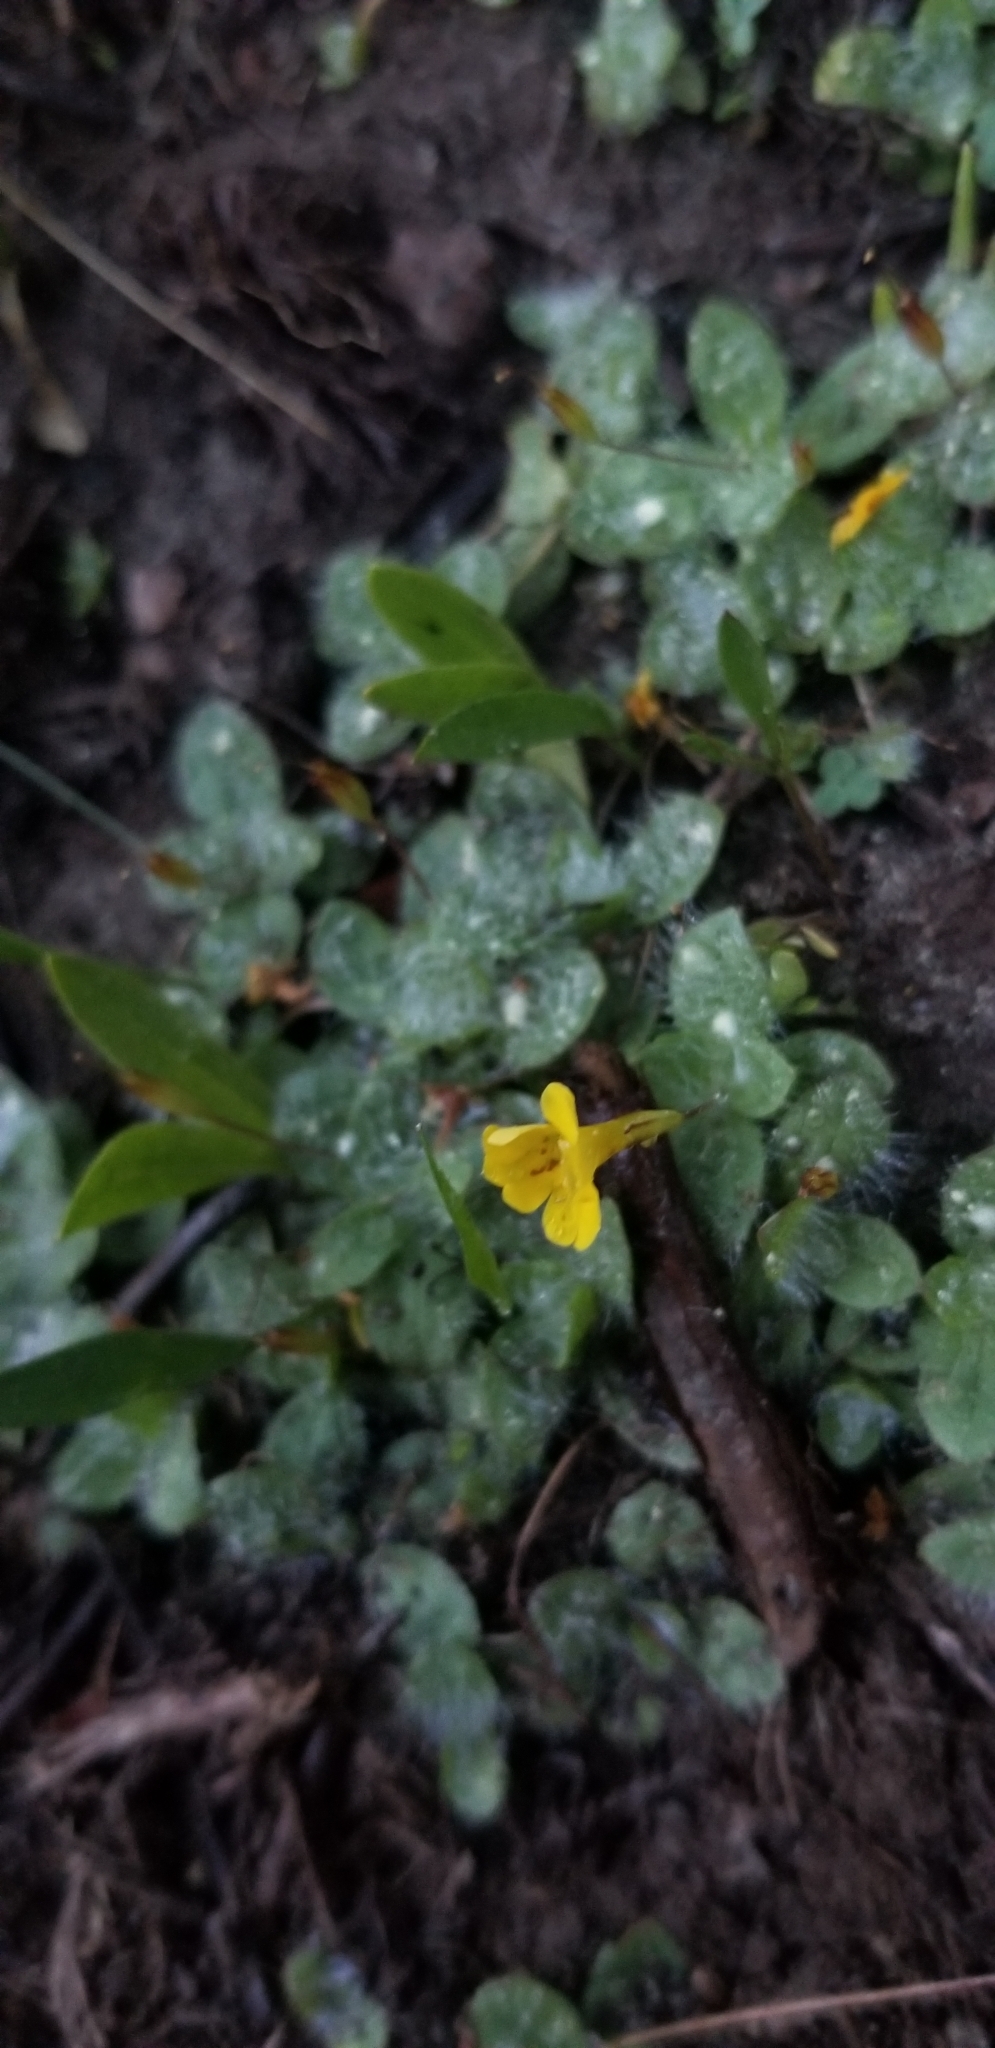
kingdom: Plantae
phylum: Tracheophyta
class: Magnoliopsida
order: Lamiales
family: Phrymaceae
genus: Erythranthe
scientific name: Erythranthe primuloides
